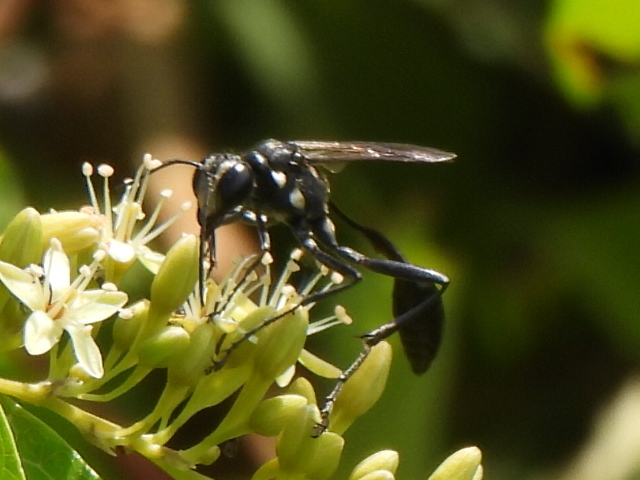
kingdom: Animalia
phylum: Arthropoda
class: Insecta
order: Hymenoptera
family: Sphecidae
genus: Eremnophila
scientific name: Eremnophila aureonotata
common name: Gold-marked thread-waisted wasp
